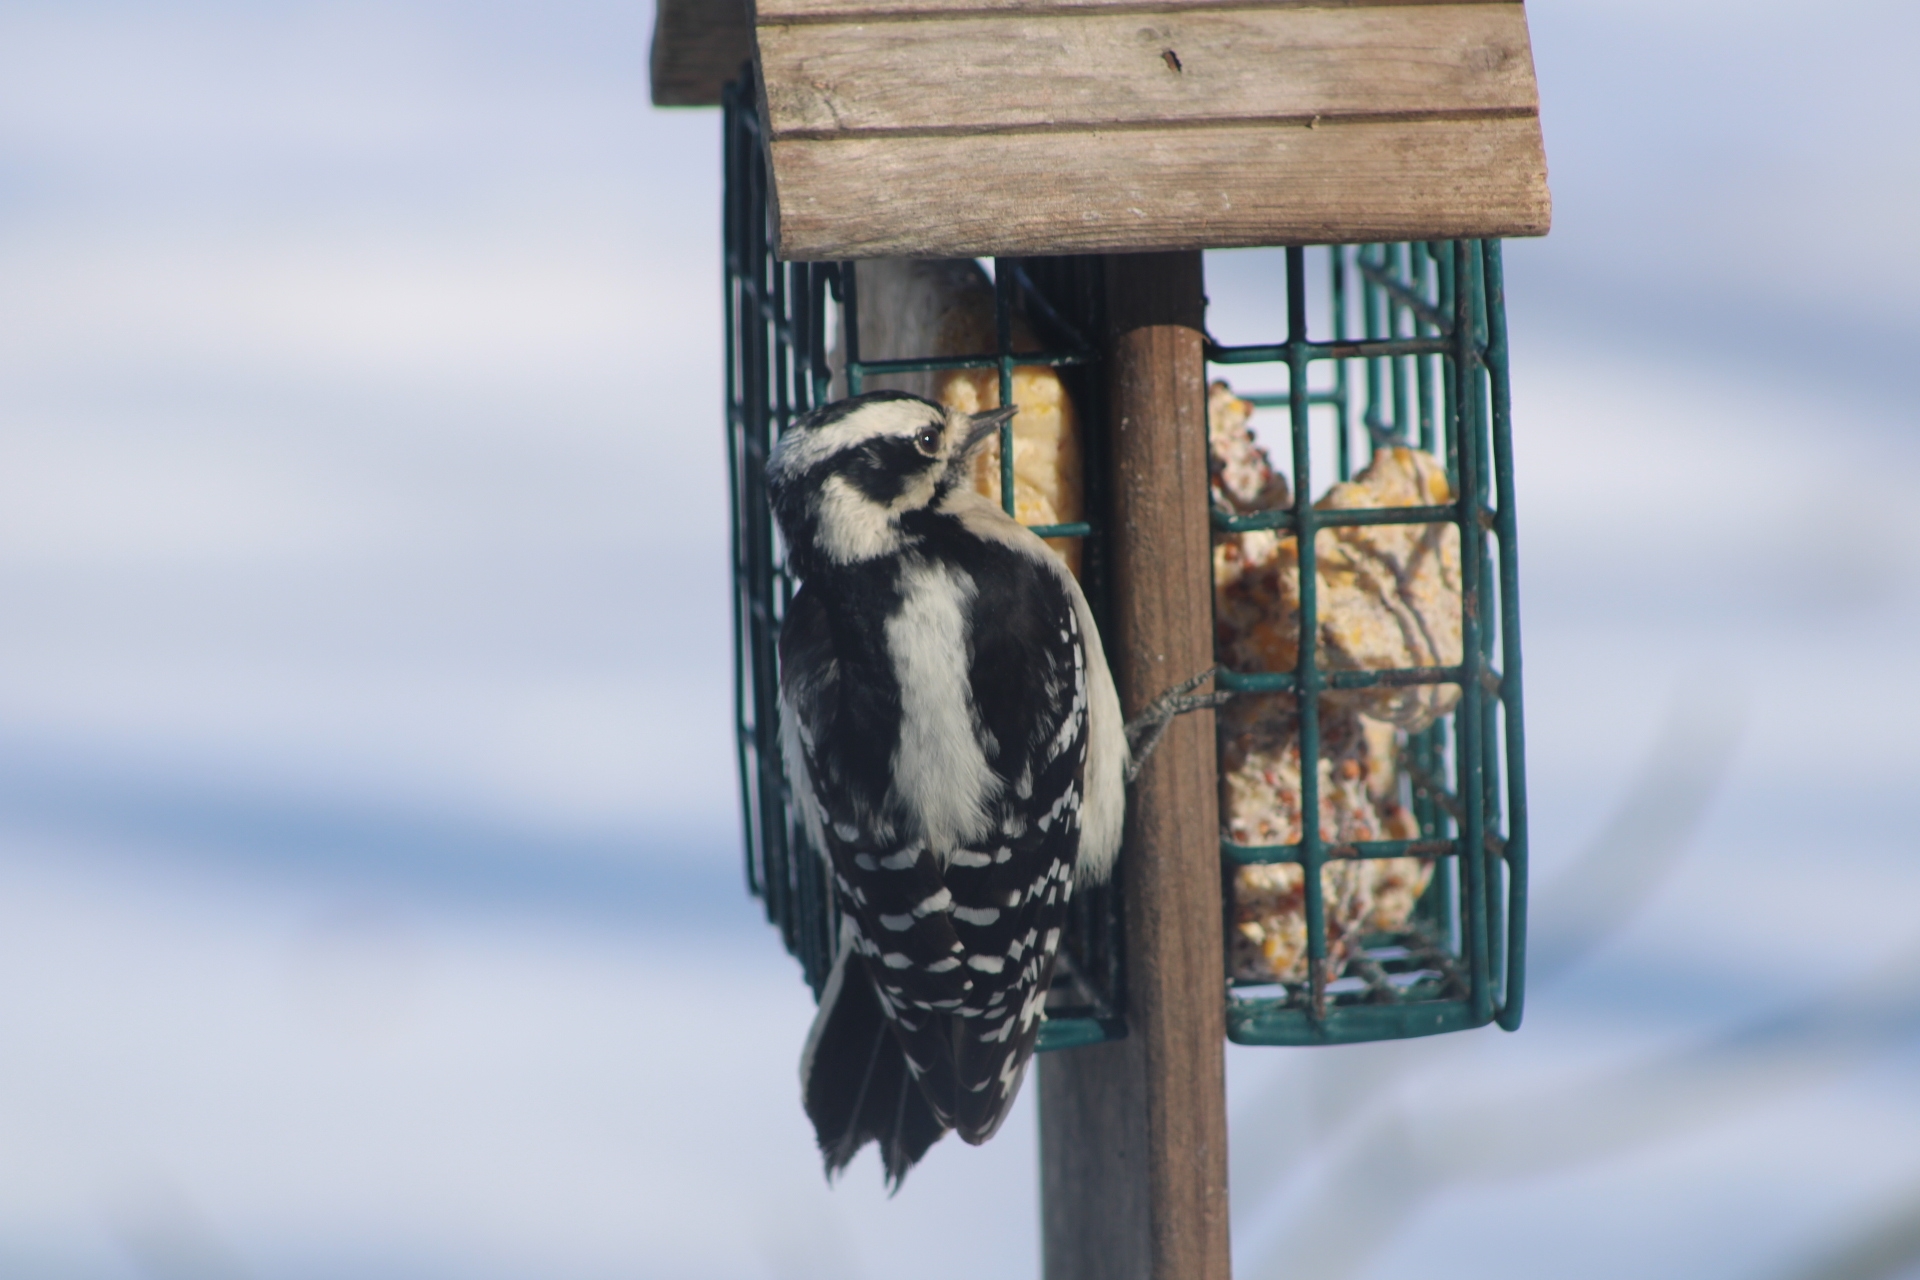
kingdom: Animalia
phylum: Chordata
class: Aves
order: Piciformes
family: Picidae
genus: Dryobates
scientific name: Dryobates pubescens
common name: Downy woodpecker
